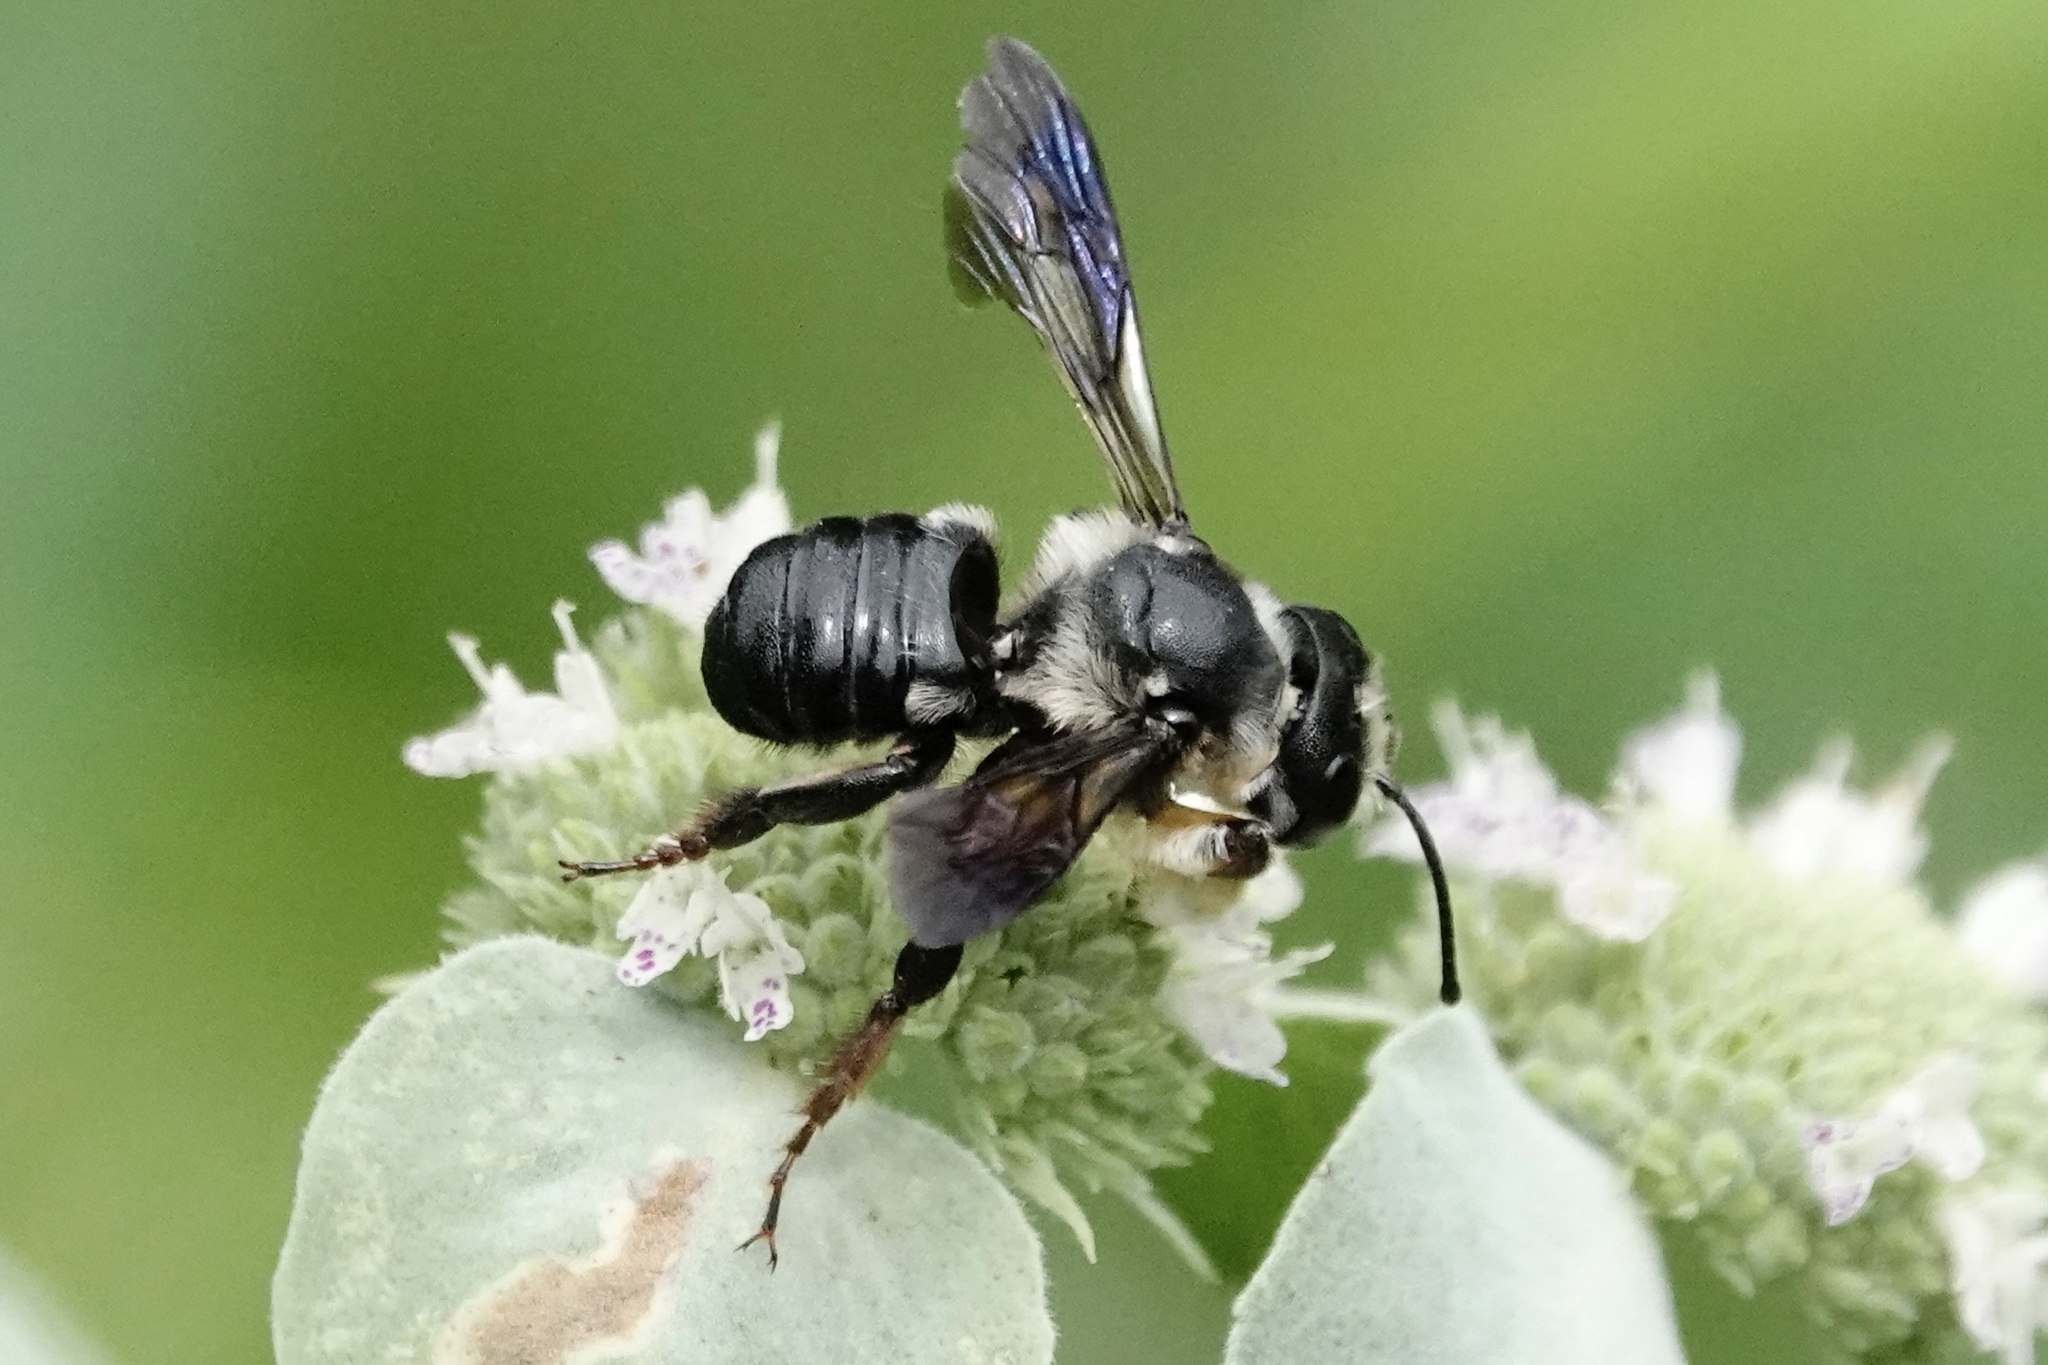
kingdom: Animalia
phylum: Arthropoda
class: Insecta
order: Hymenoptera
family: Megachilidae
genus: Megachile
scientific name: Megachile xylocopoides
